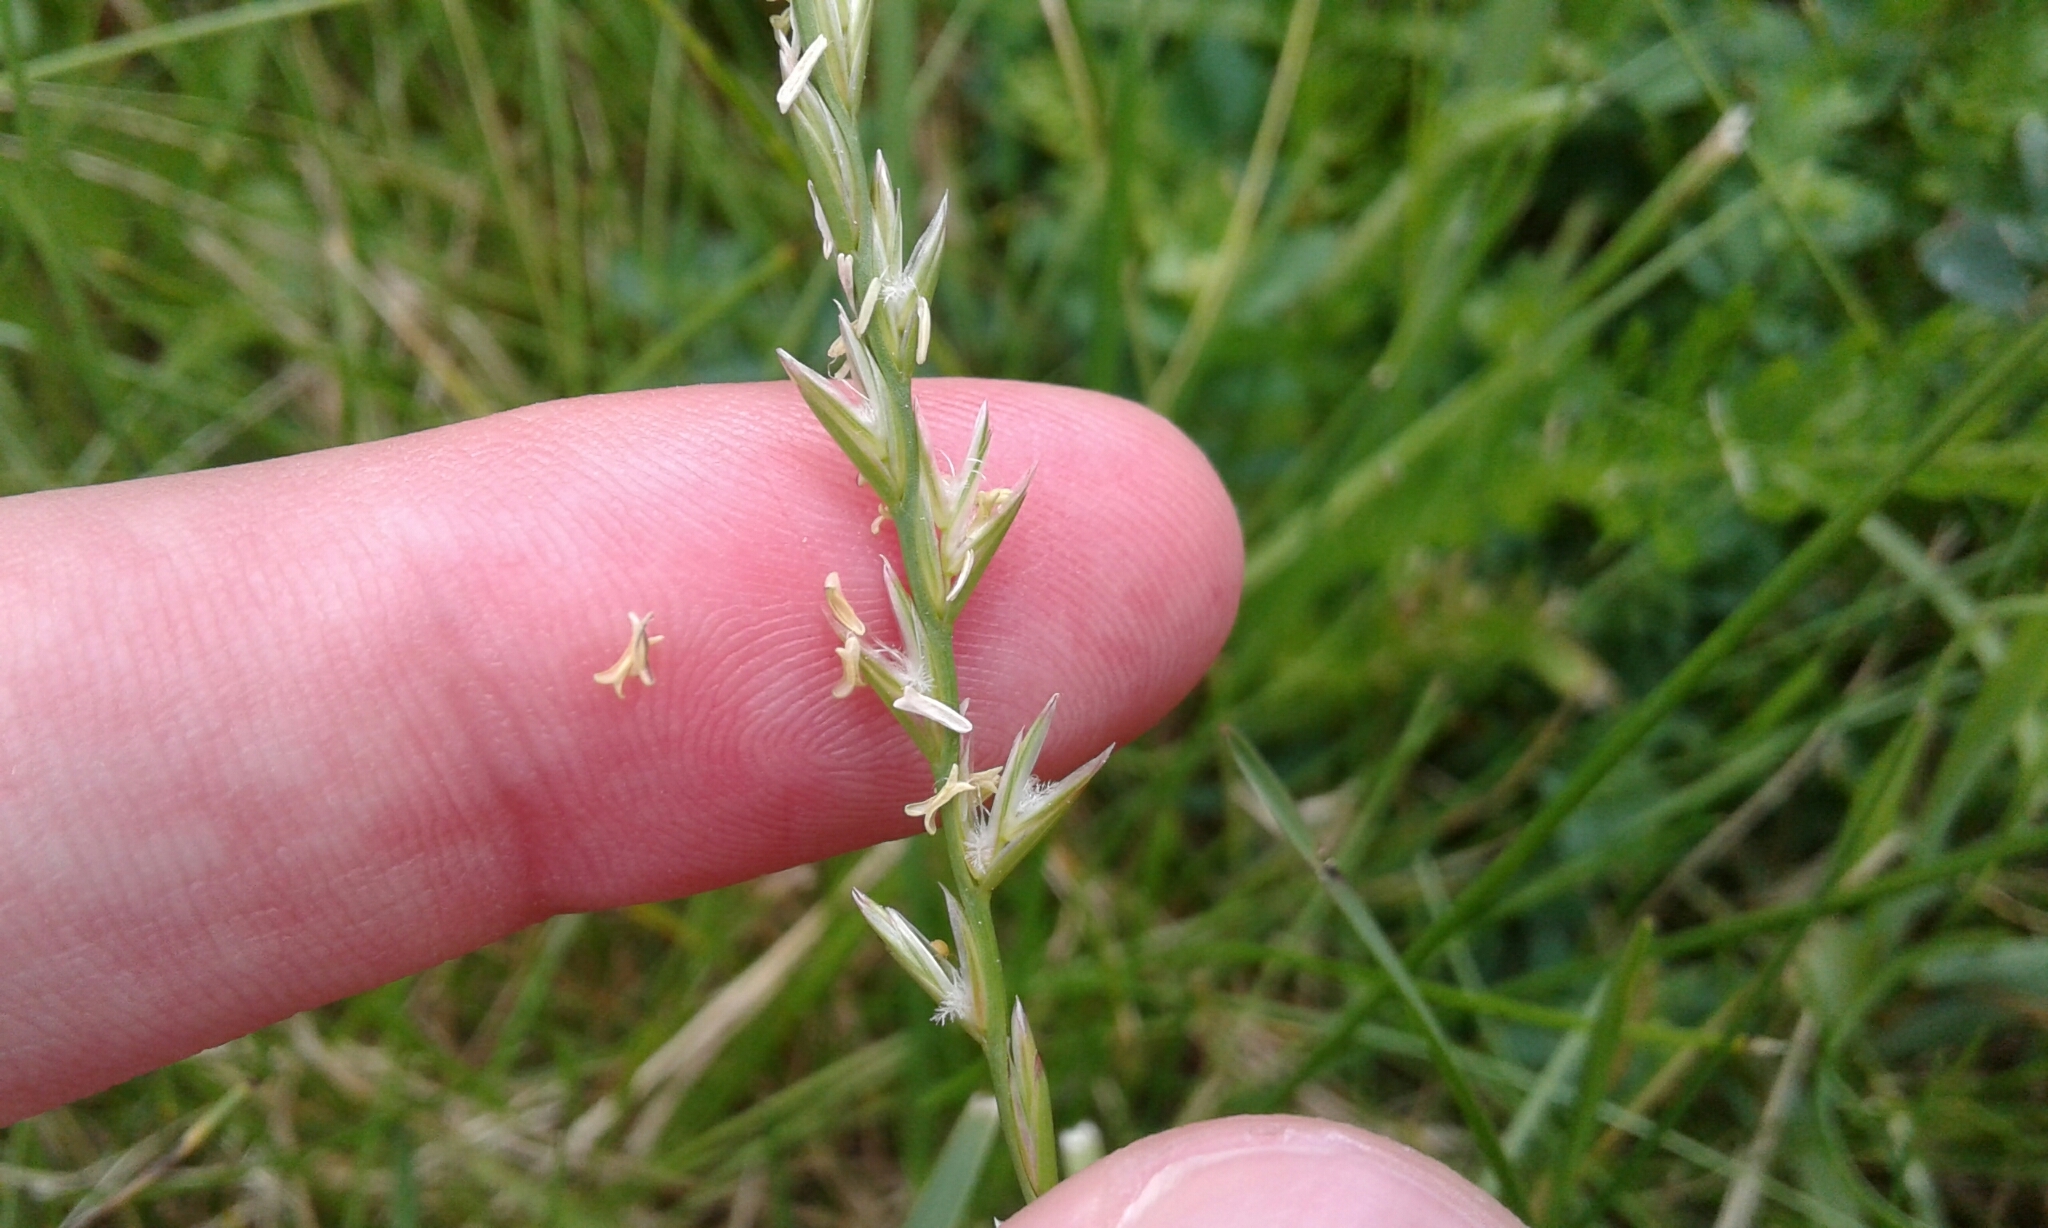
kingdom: Plantae
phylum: Tracheophyta
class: Liliopsida
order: Poales
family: Poaceae
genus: Lolium
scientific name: Lolium perenne
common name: Perennial ryegrass
